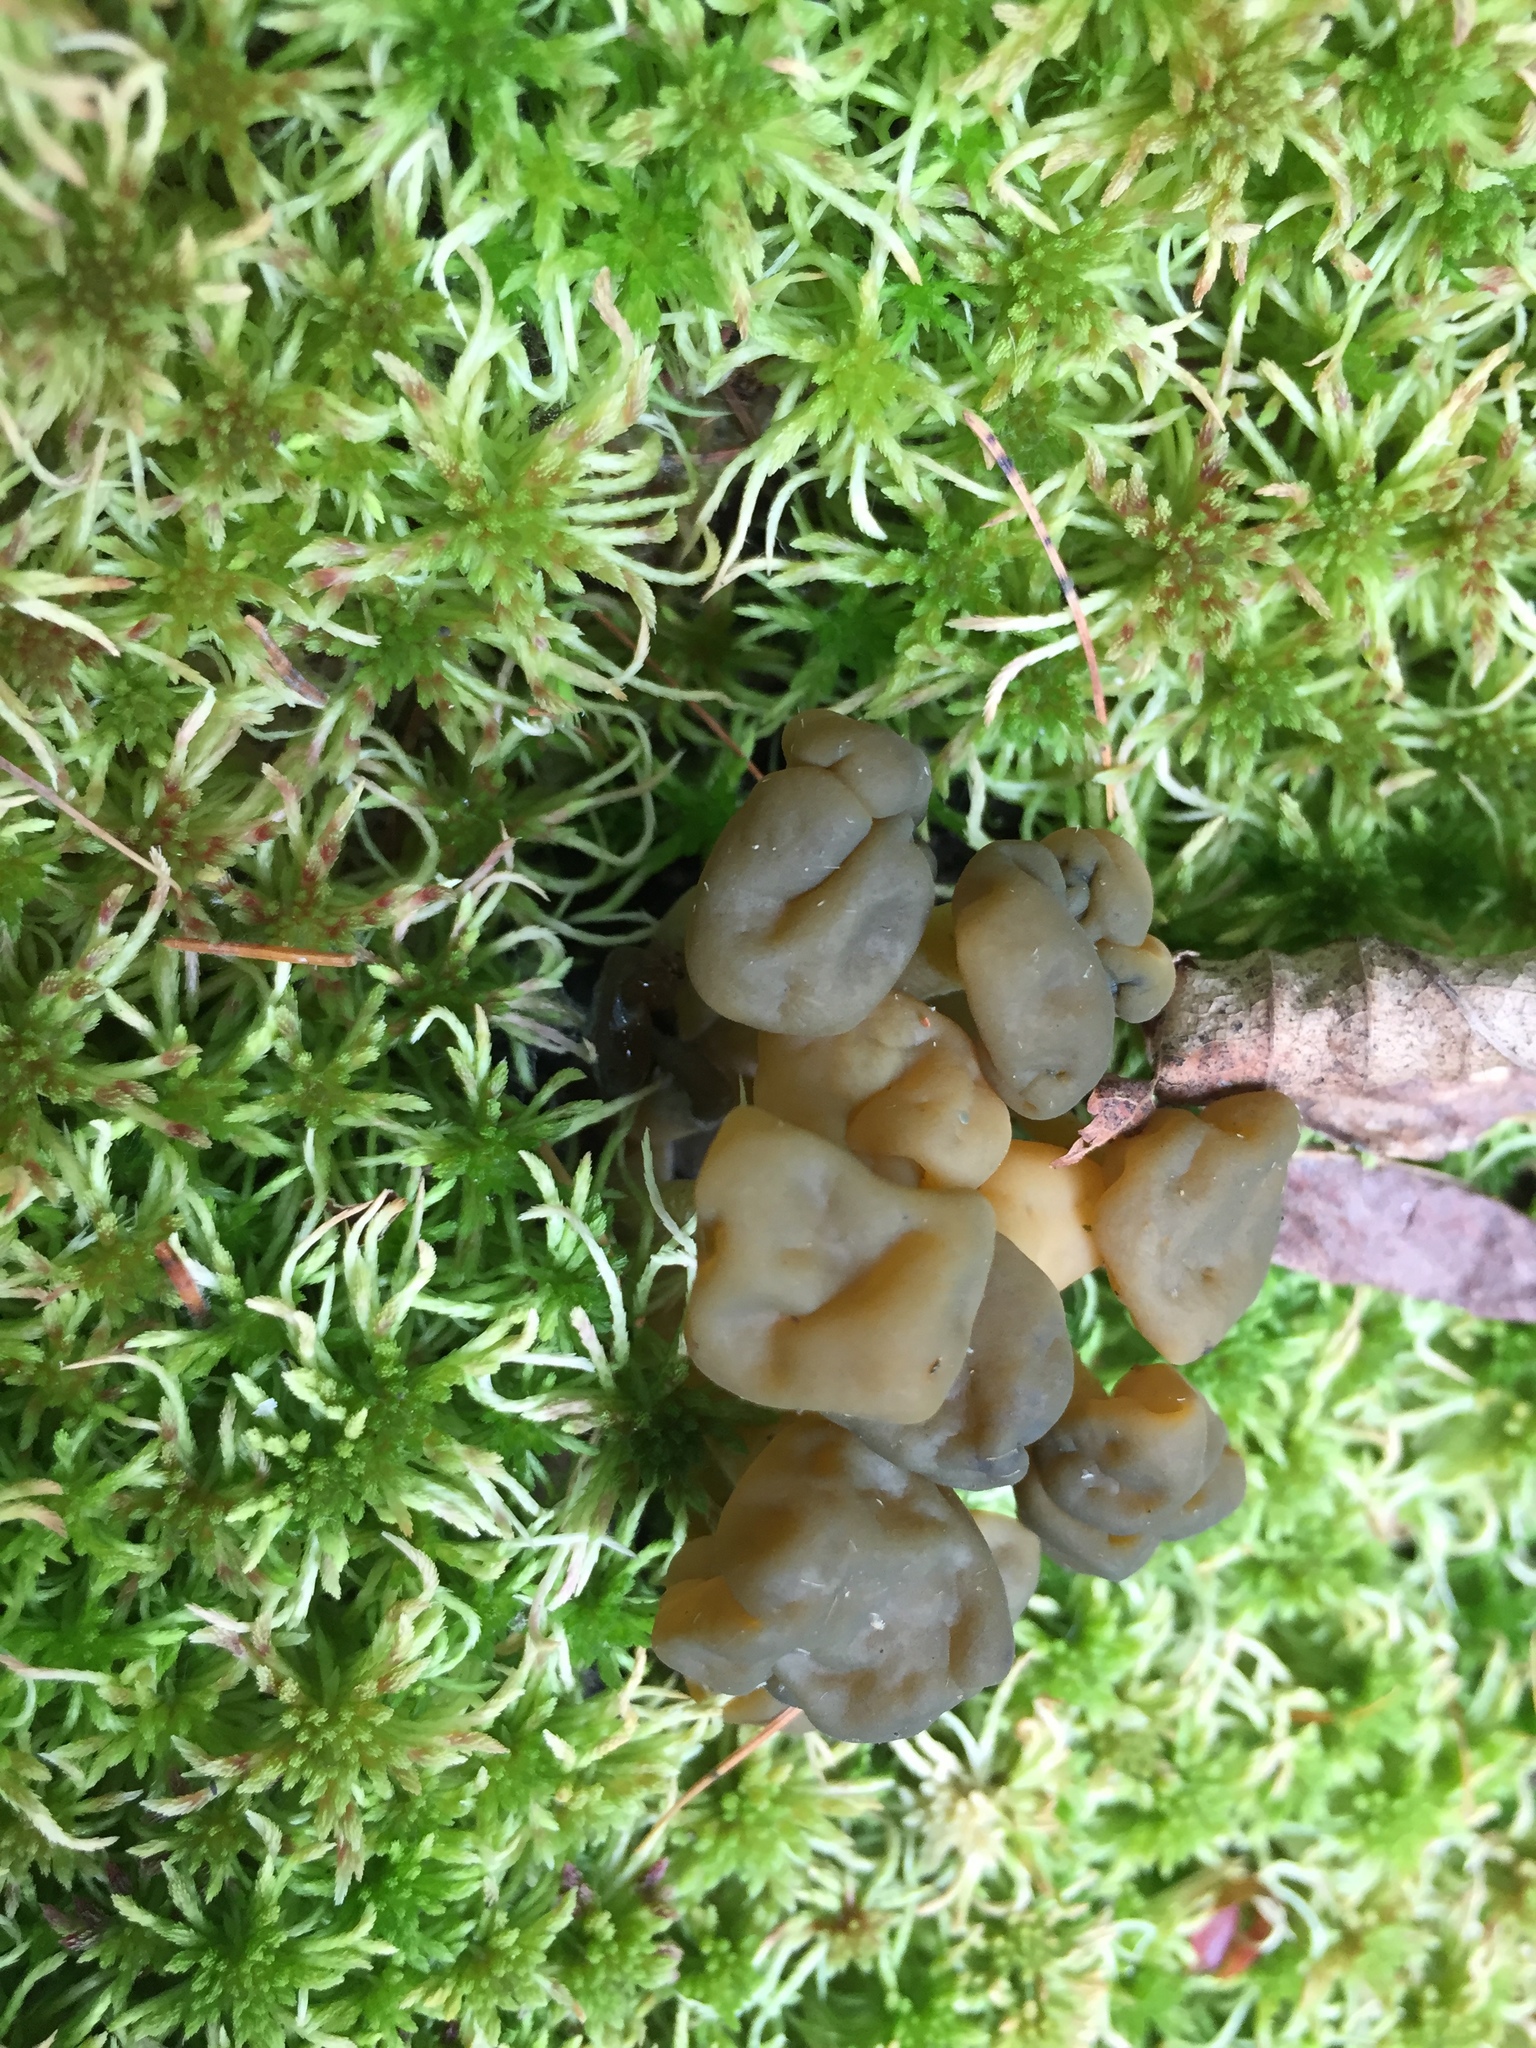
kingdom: Fungi
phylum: Ascomycota
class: Leotiomycetes
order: Leotiales
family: Leotiaceae
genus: Leotia
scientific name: Leotia lubrica
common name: Jellybaby
